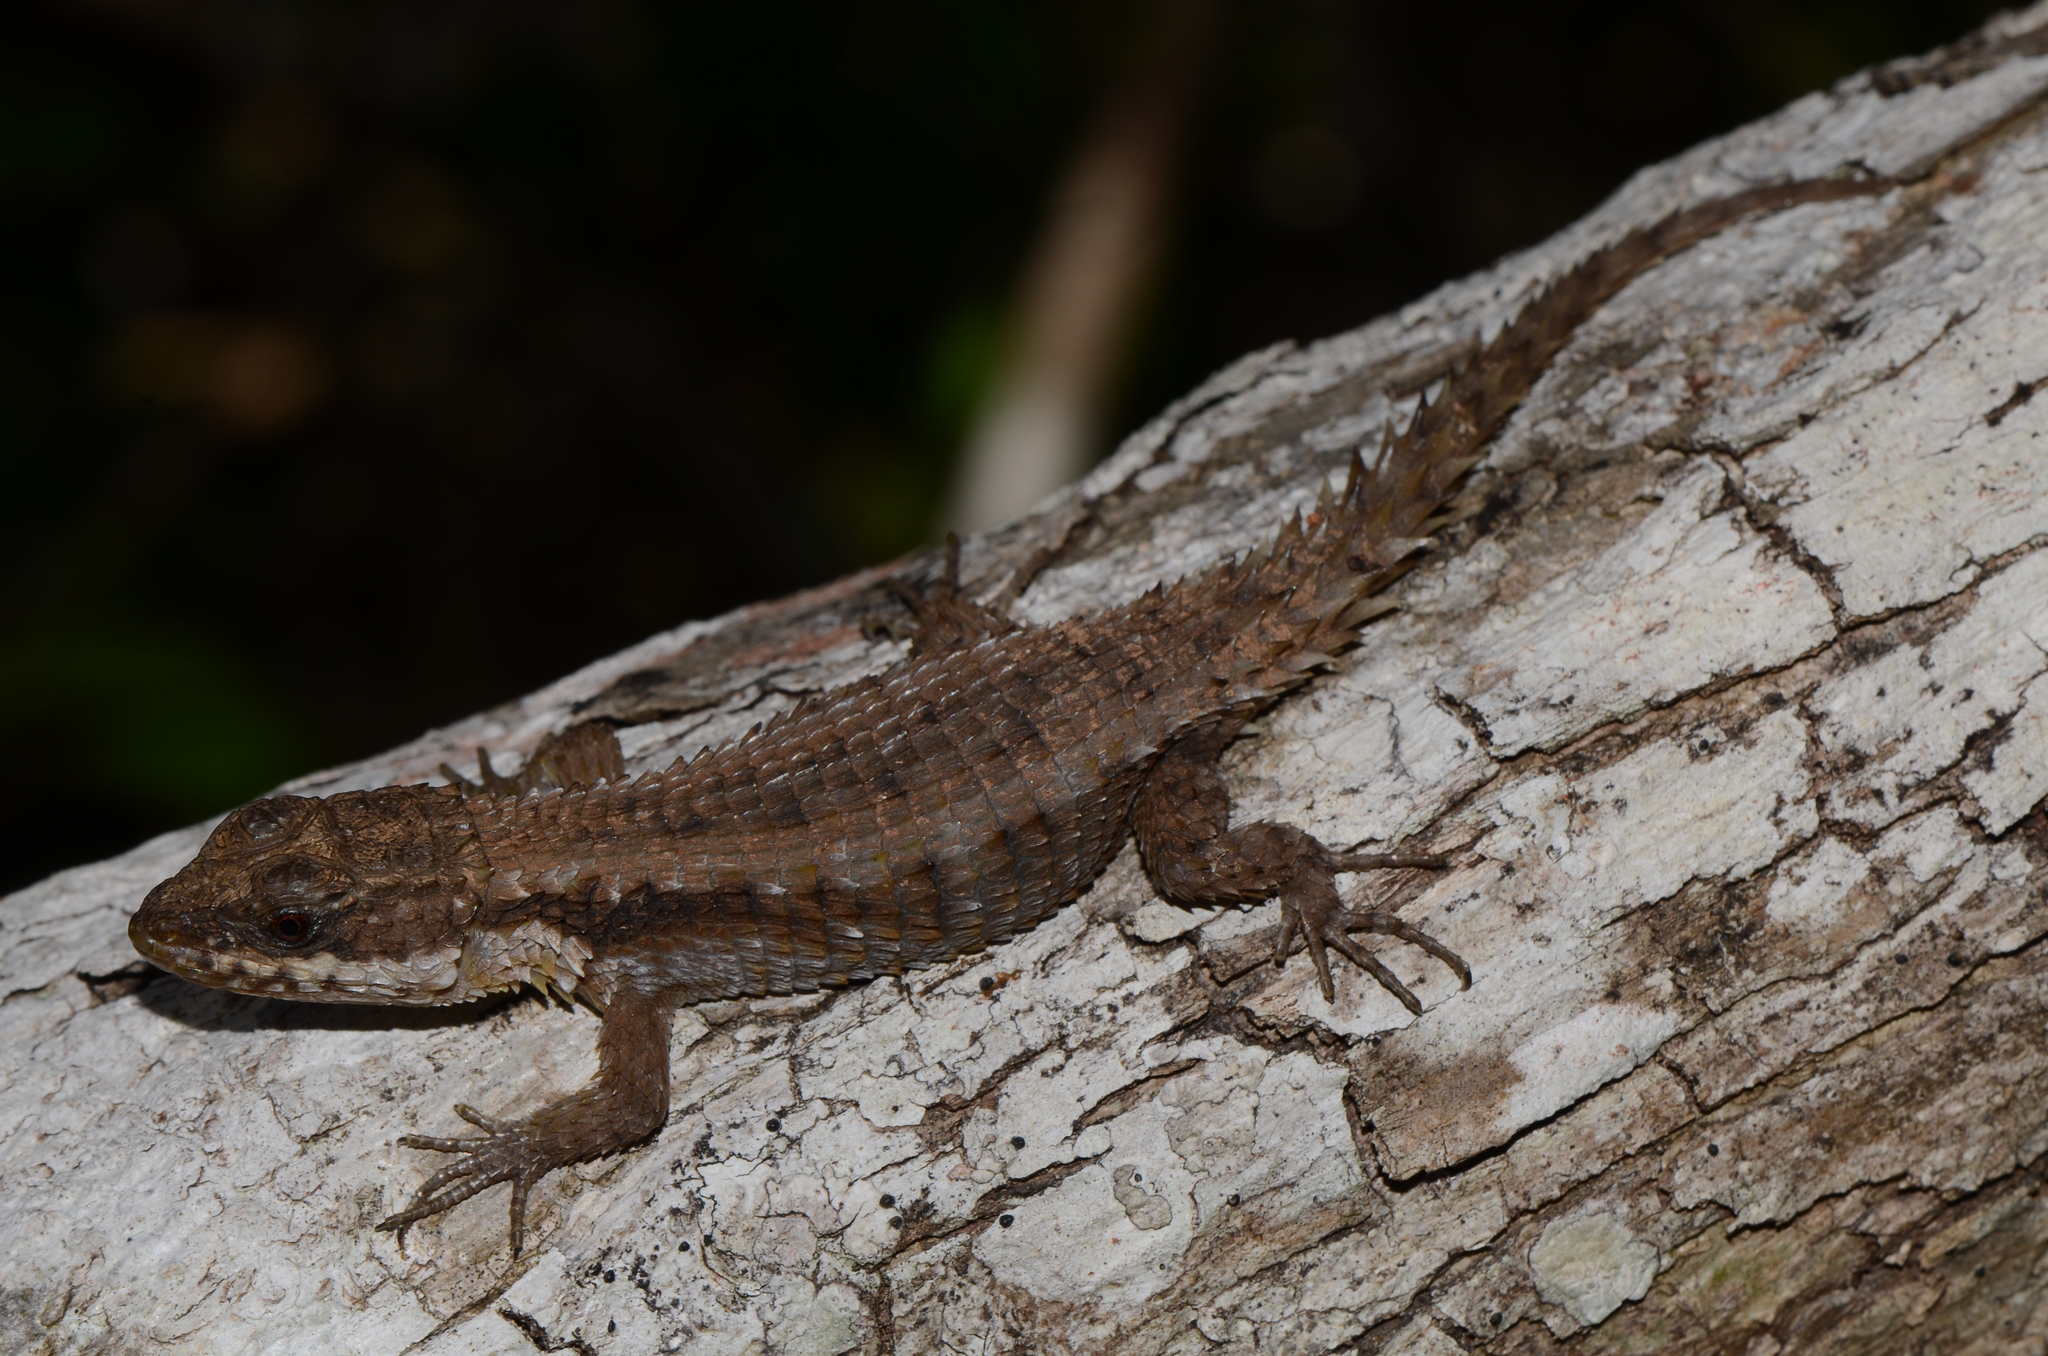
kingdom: Animalia
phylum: Chordata
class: Squamata
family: Cordylidae
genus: Cordylus
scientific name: Cordylus tropidosternum
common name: Tropical girdled lizard
